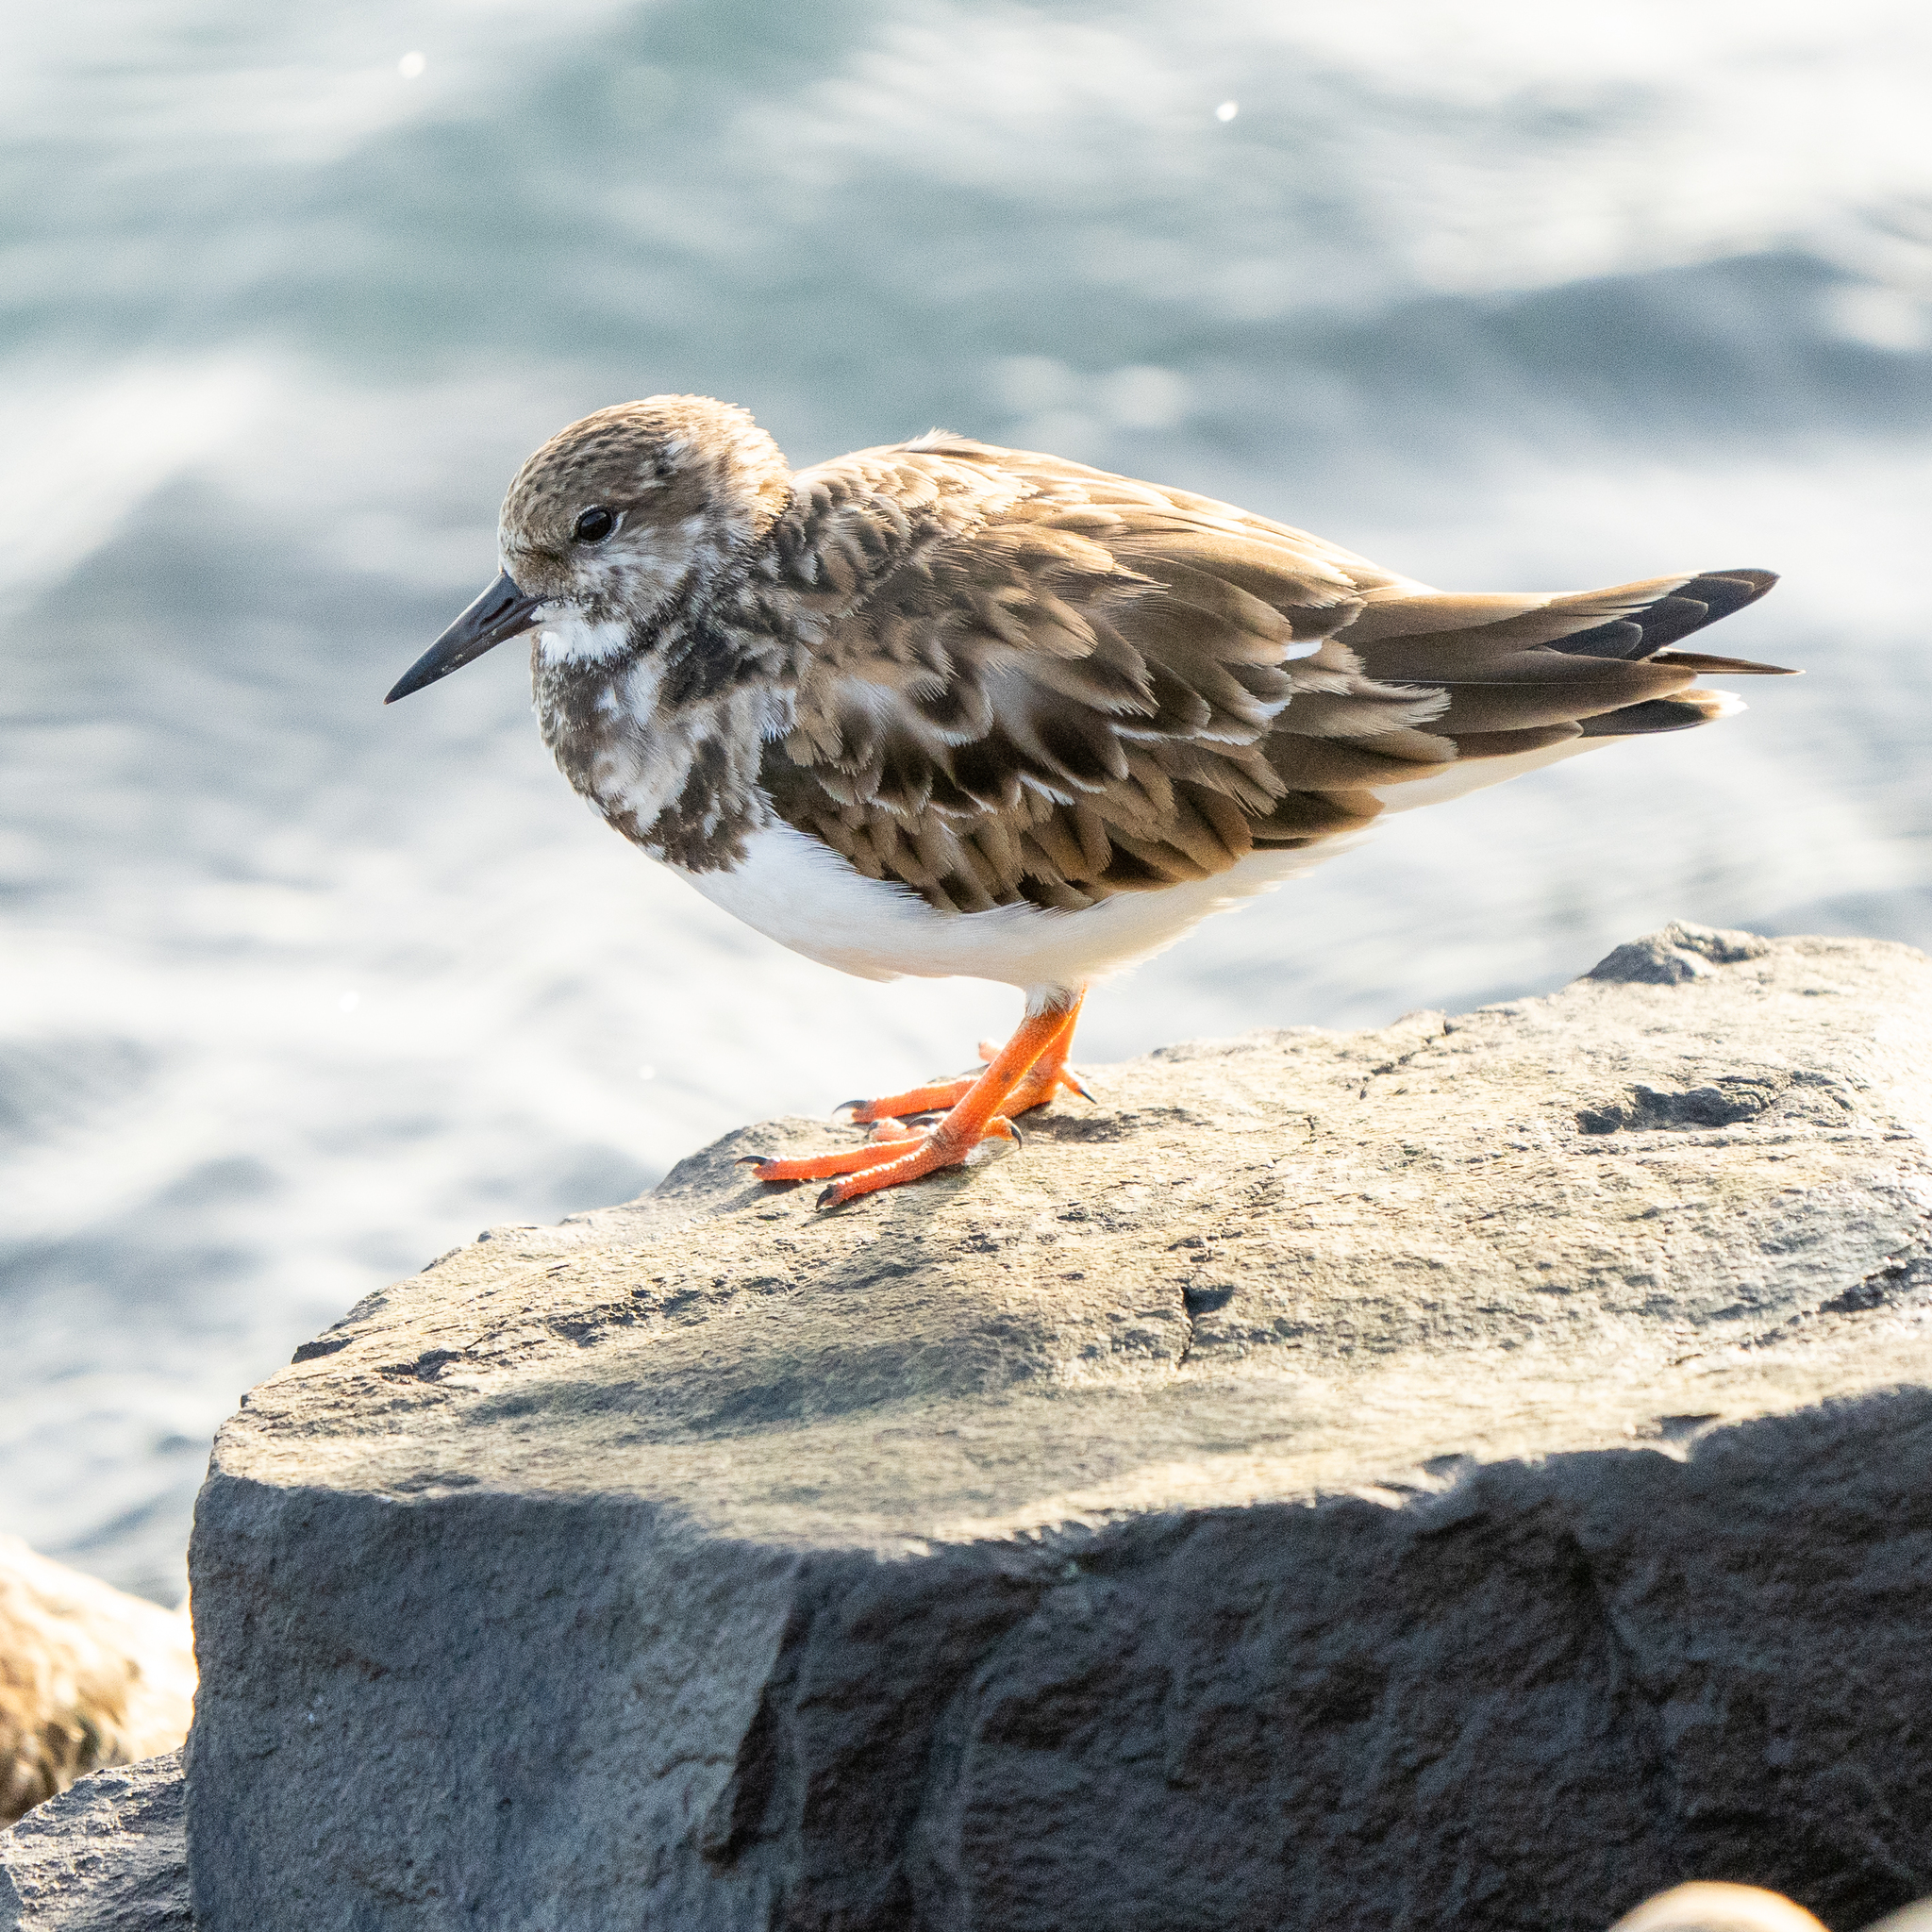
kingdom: Animalia
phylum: Chordata
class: Aves
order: Charadriiformes
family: Scolopacidae
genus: Arenaria
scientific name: Arenaria interpres
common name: Ruddy turnstone
